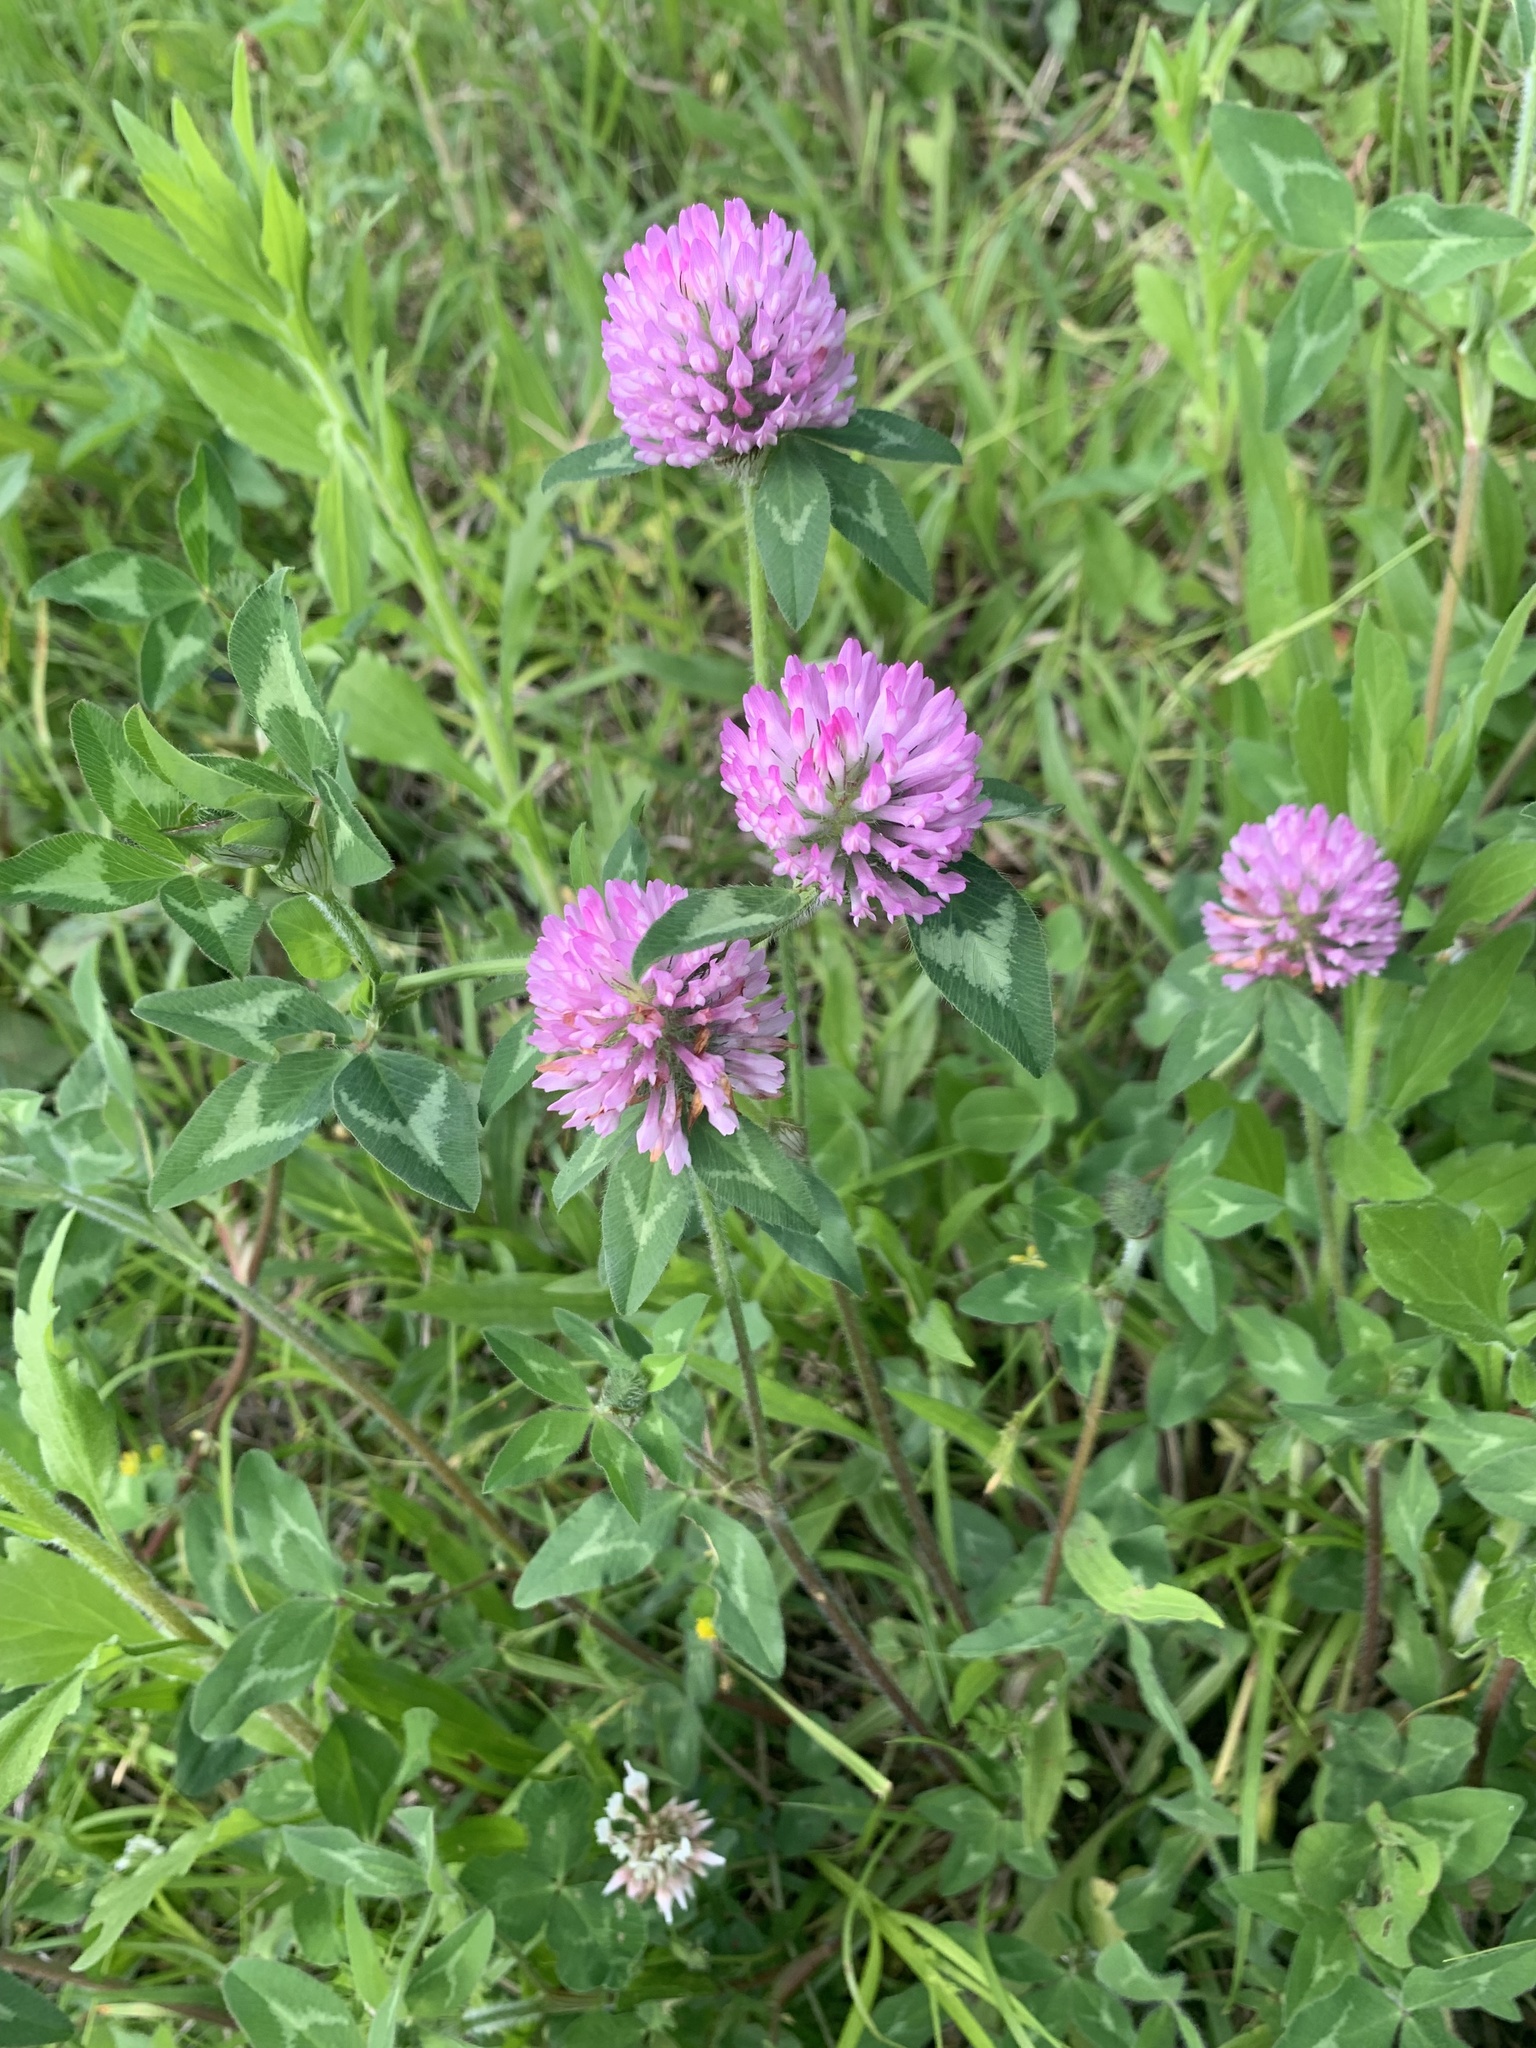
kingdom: Plantae
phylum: Tracheophyta
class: Magnoliopsida
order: Fabales
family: Fabaceae
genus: Trifolium
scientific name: Trifolium pratense
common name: Red clover
